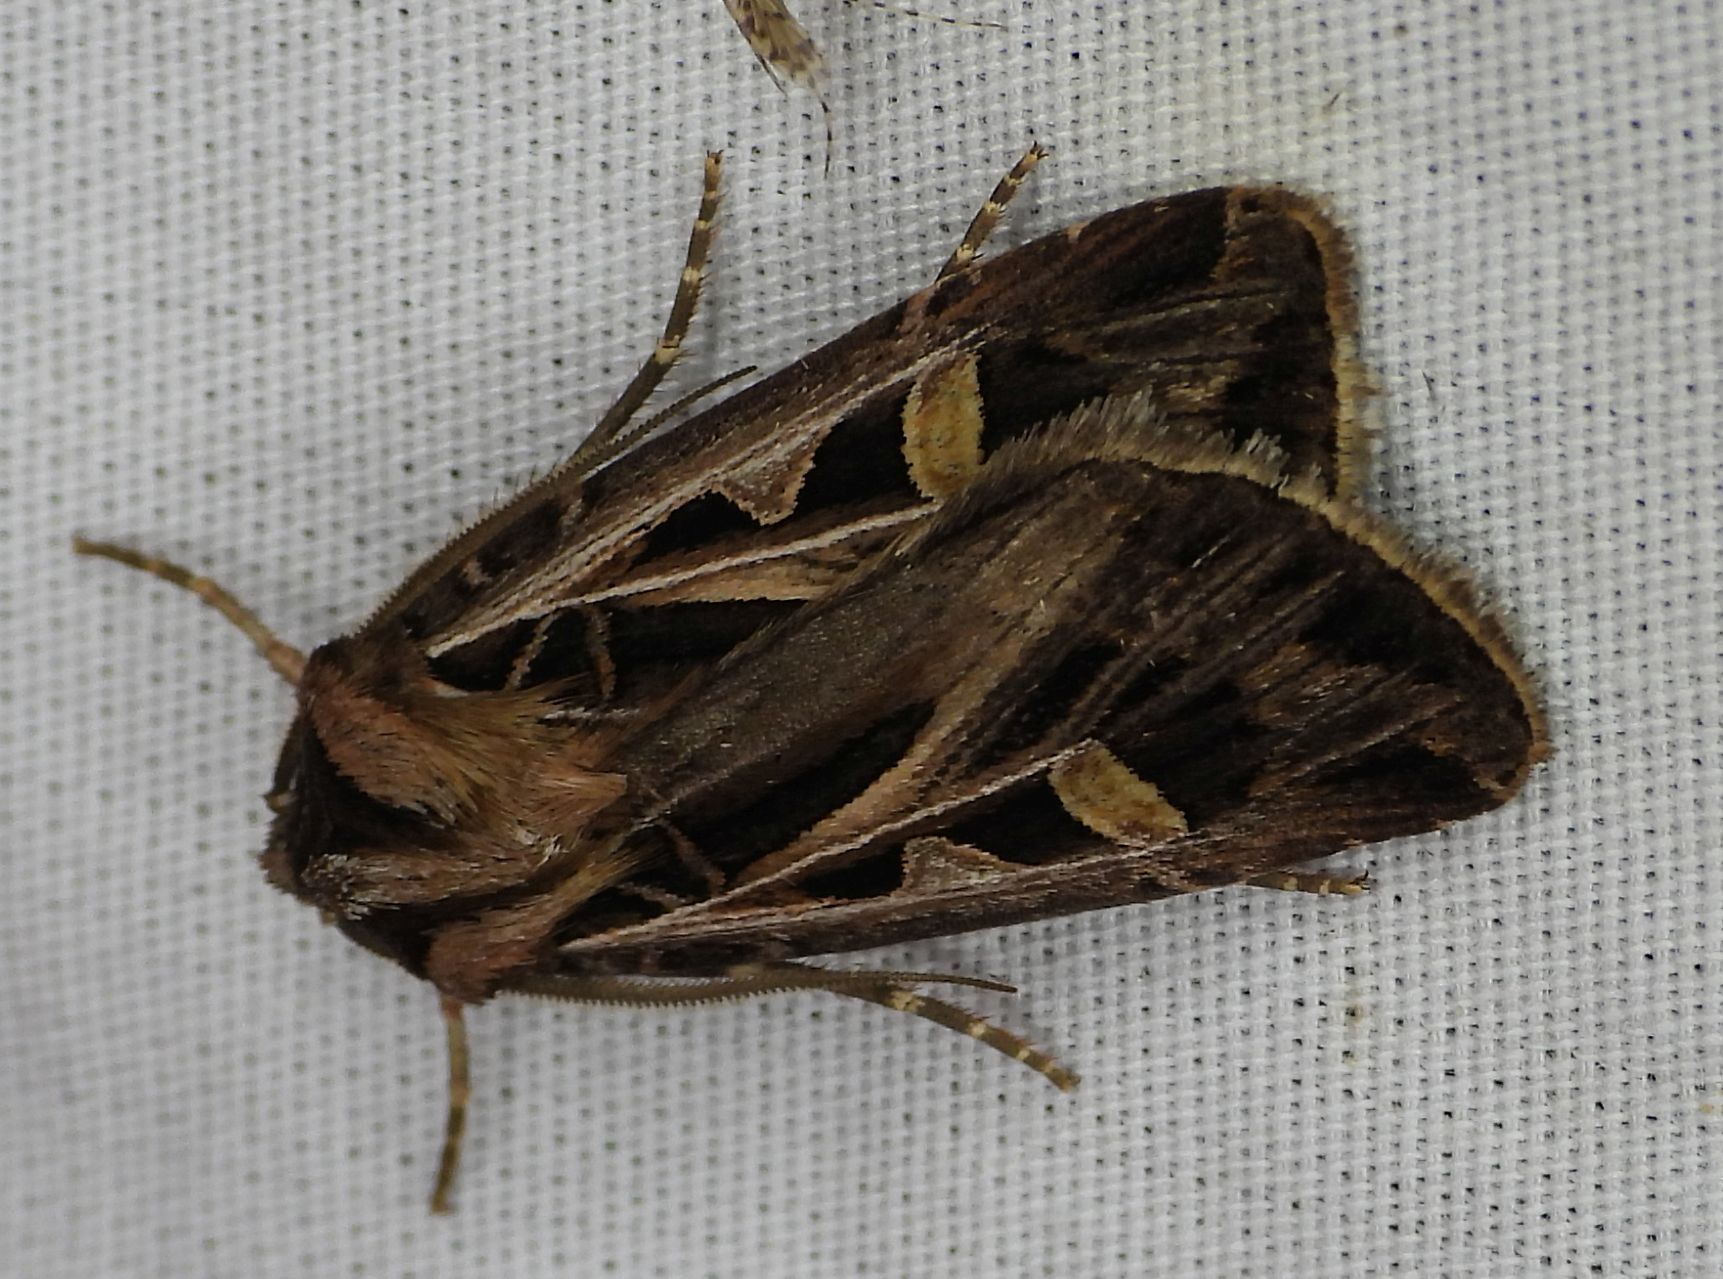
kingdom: Animalia
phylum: Arthropoda
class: Insecta
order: Lepidoptera
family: Noctuidae
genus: Feltia
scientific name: Feltia jaculifera
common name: Dingy cutworm moth
